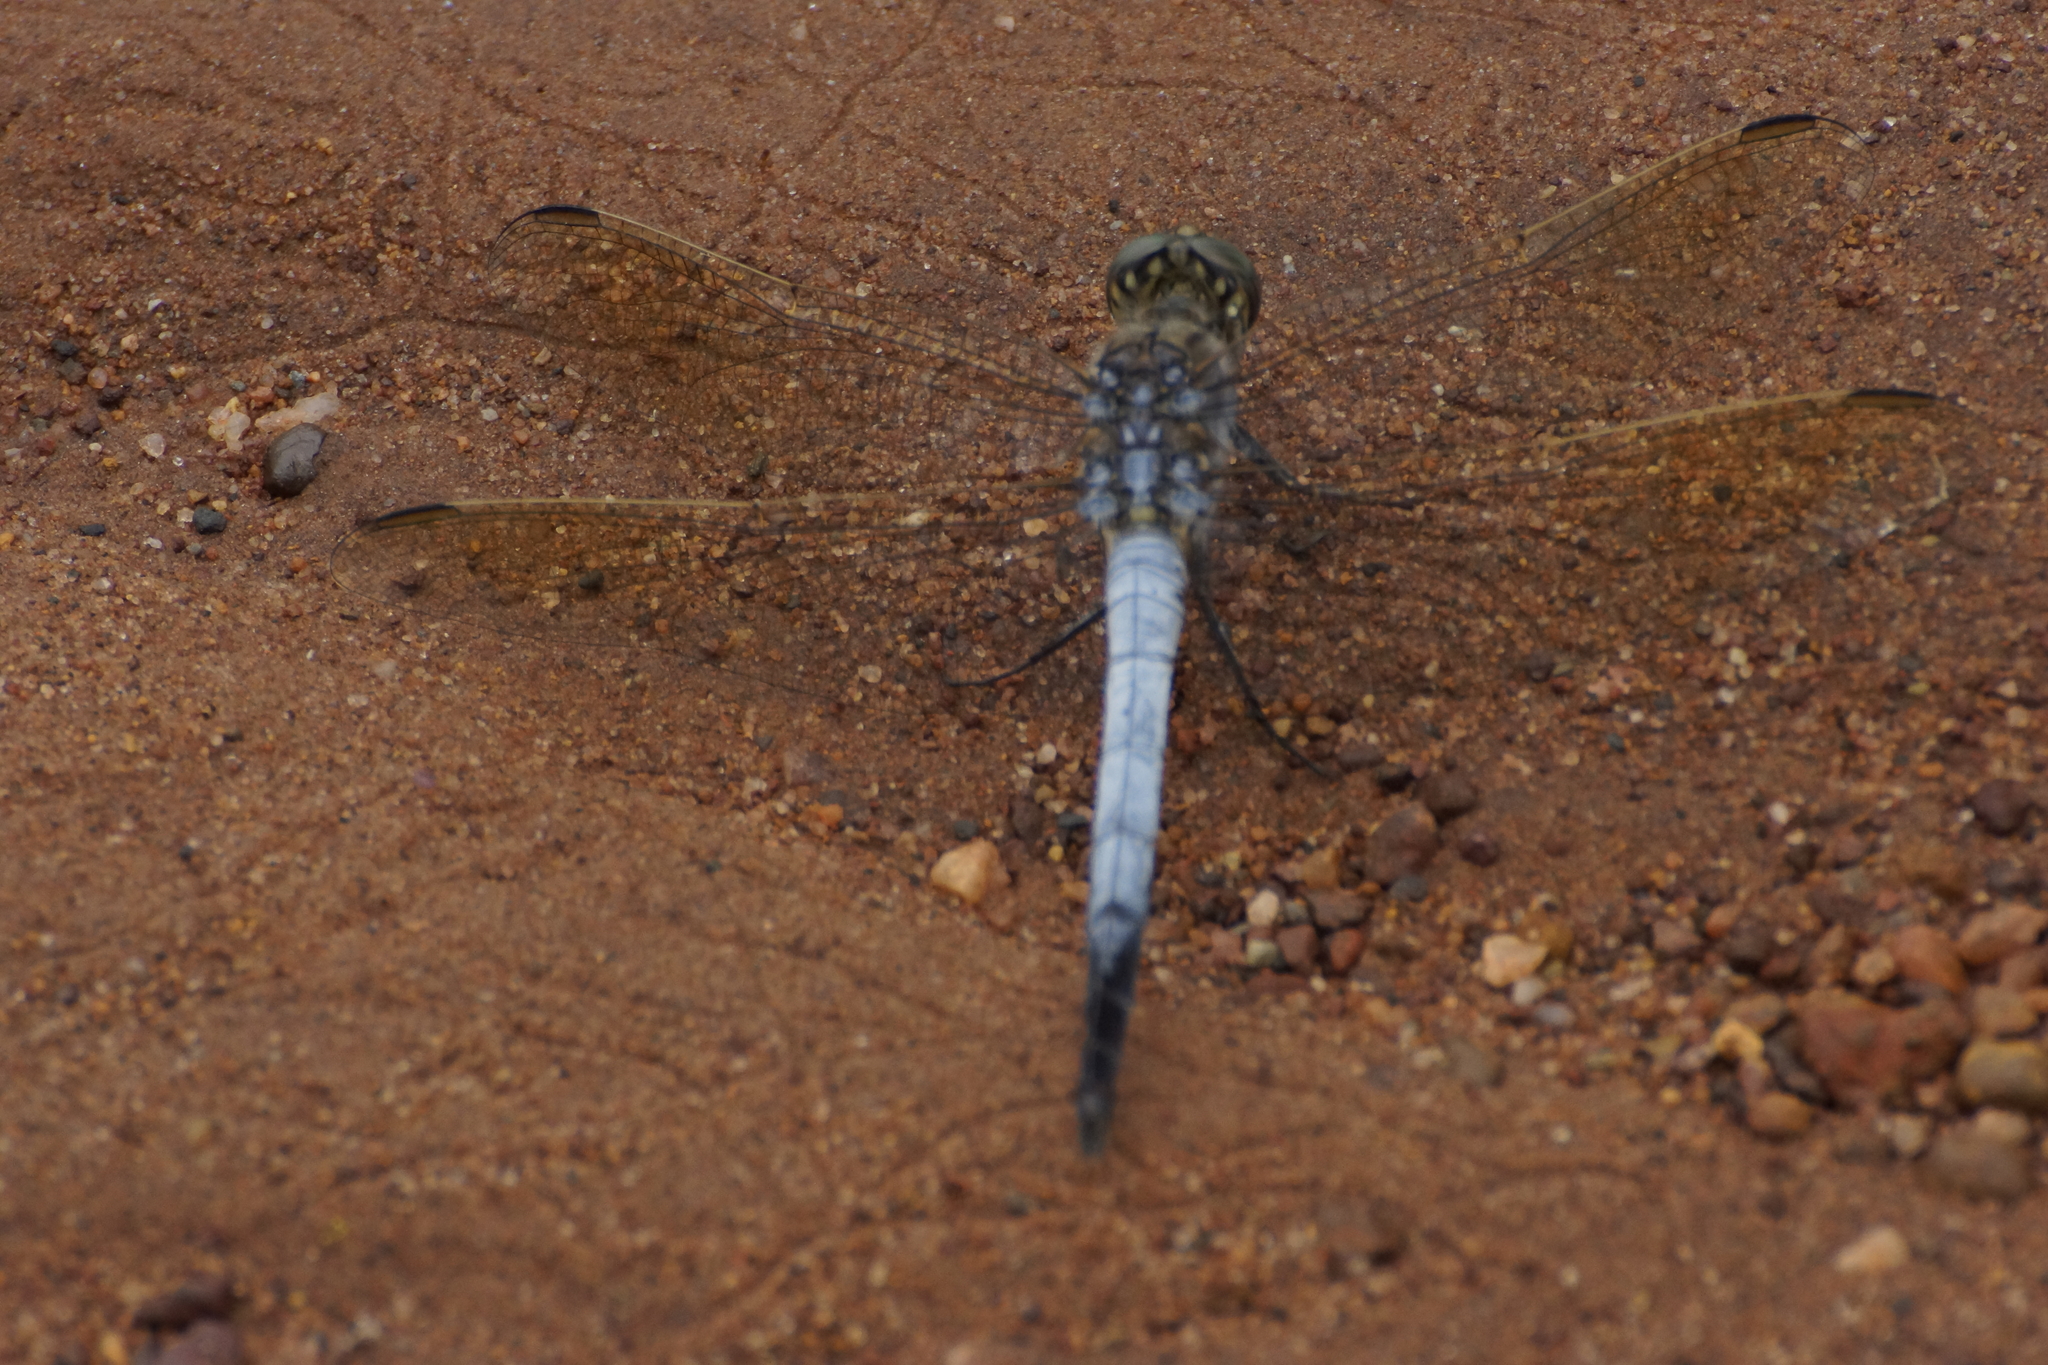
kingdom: Animalia
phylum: Arthropoda
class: Insecta
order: Odonata
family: Libellulidae
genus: Orthetrum
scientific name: Orthetrum caledonicum
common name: Blue skimmer
